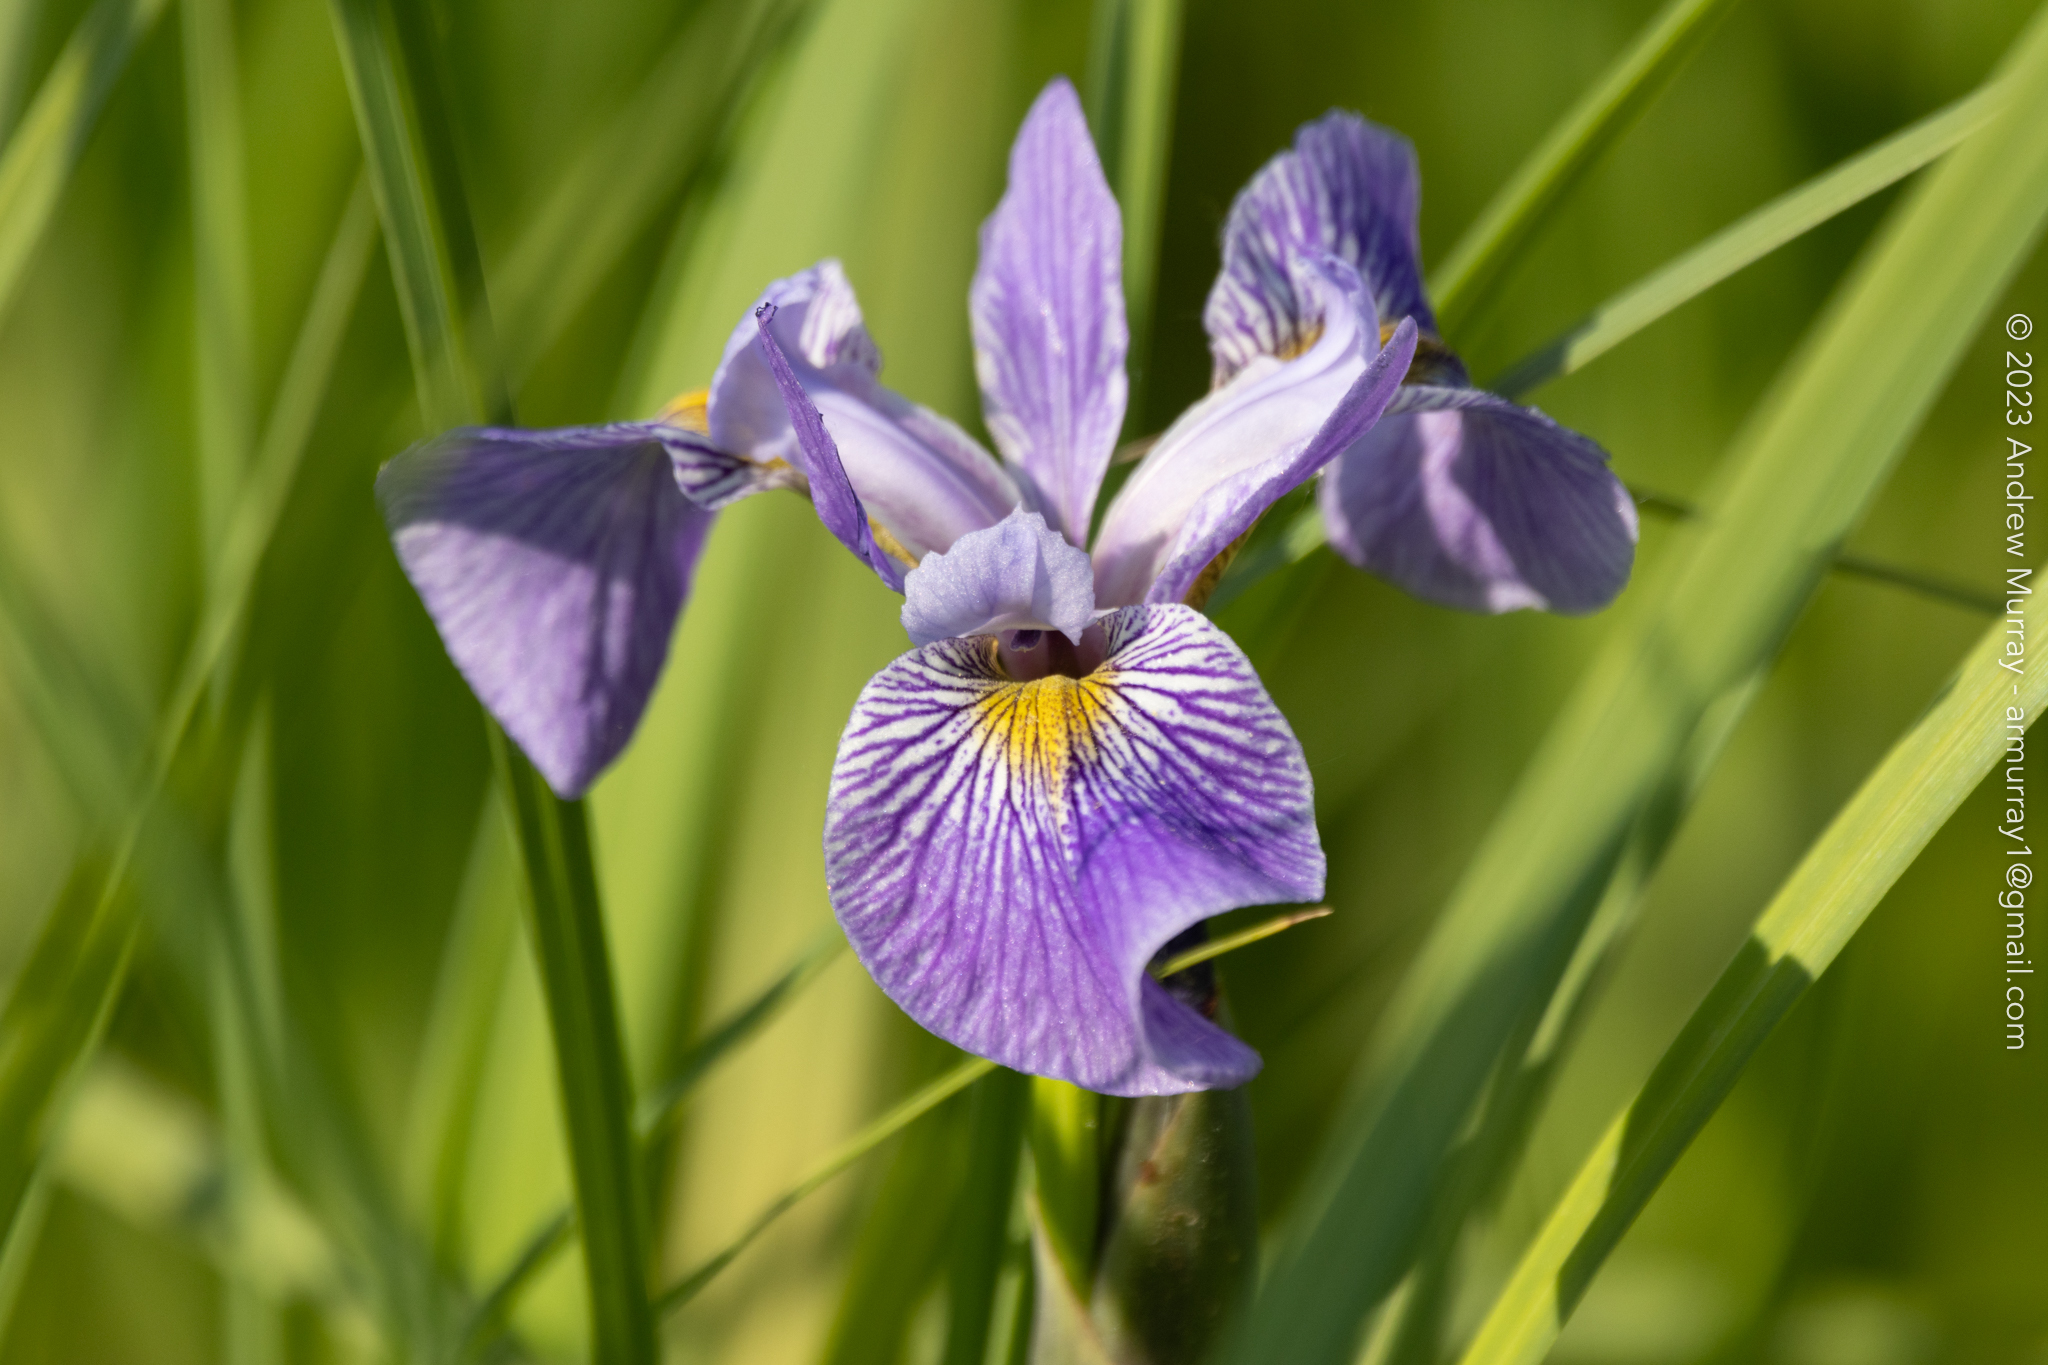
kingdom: Plantae
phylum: Tracheophyta
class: Liliopsida
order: Asparagales
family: Iridaceae
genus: Iris
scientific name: Iris versicolor
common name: Purple iris
